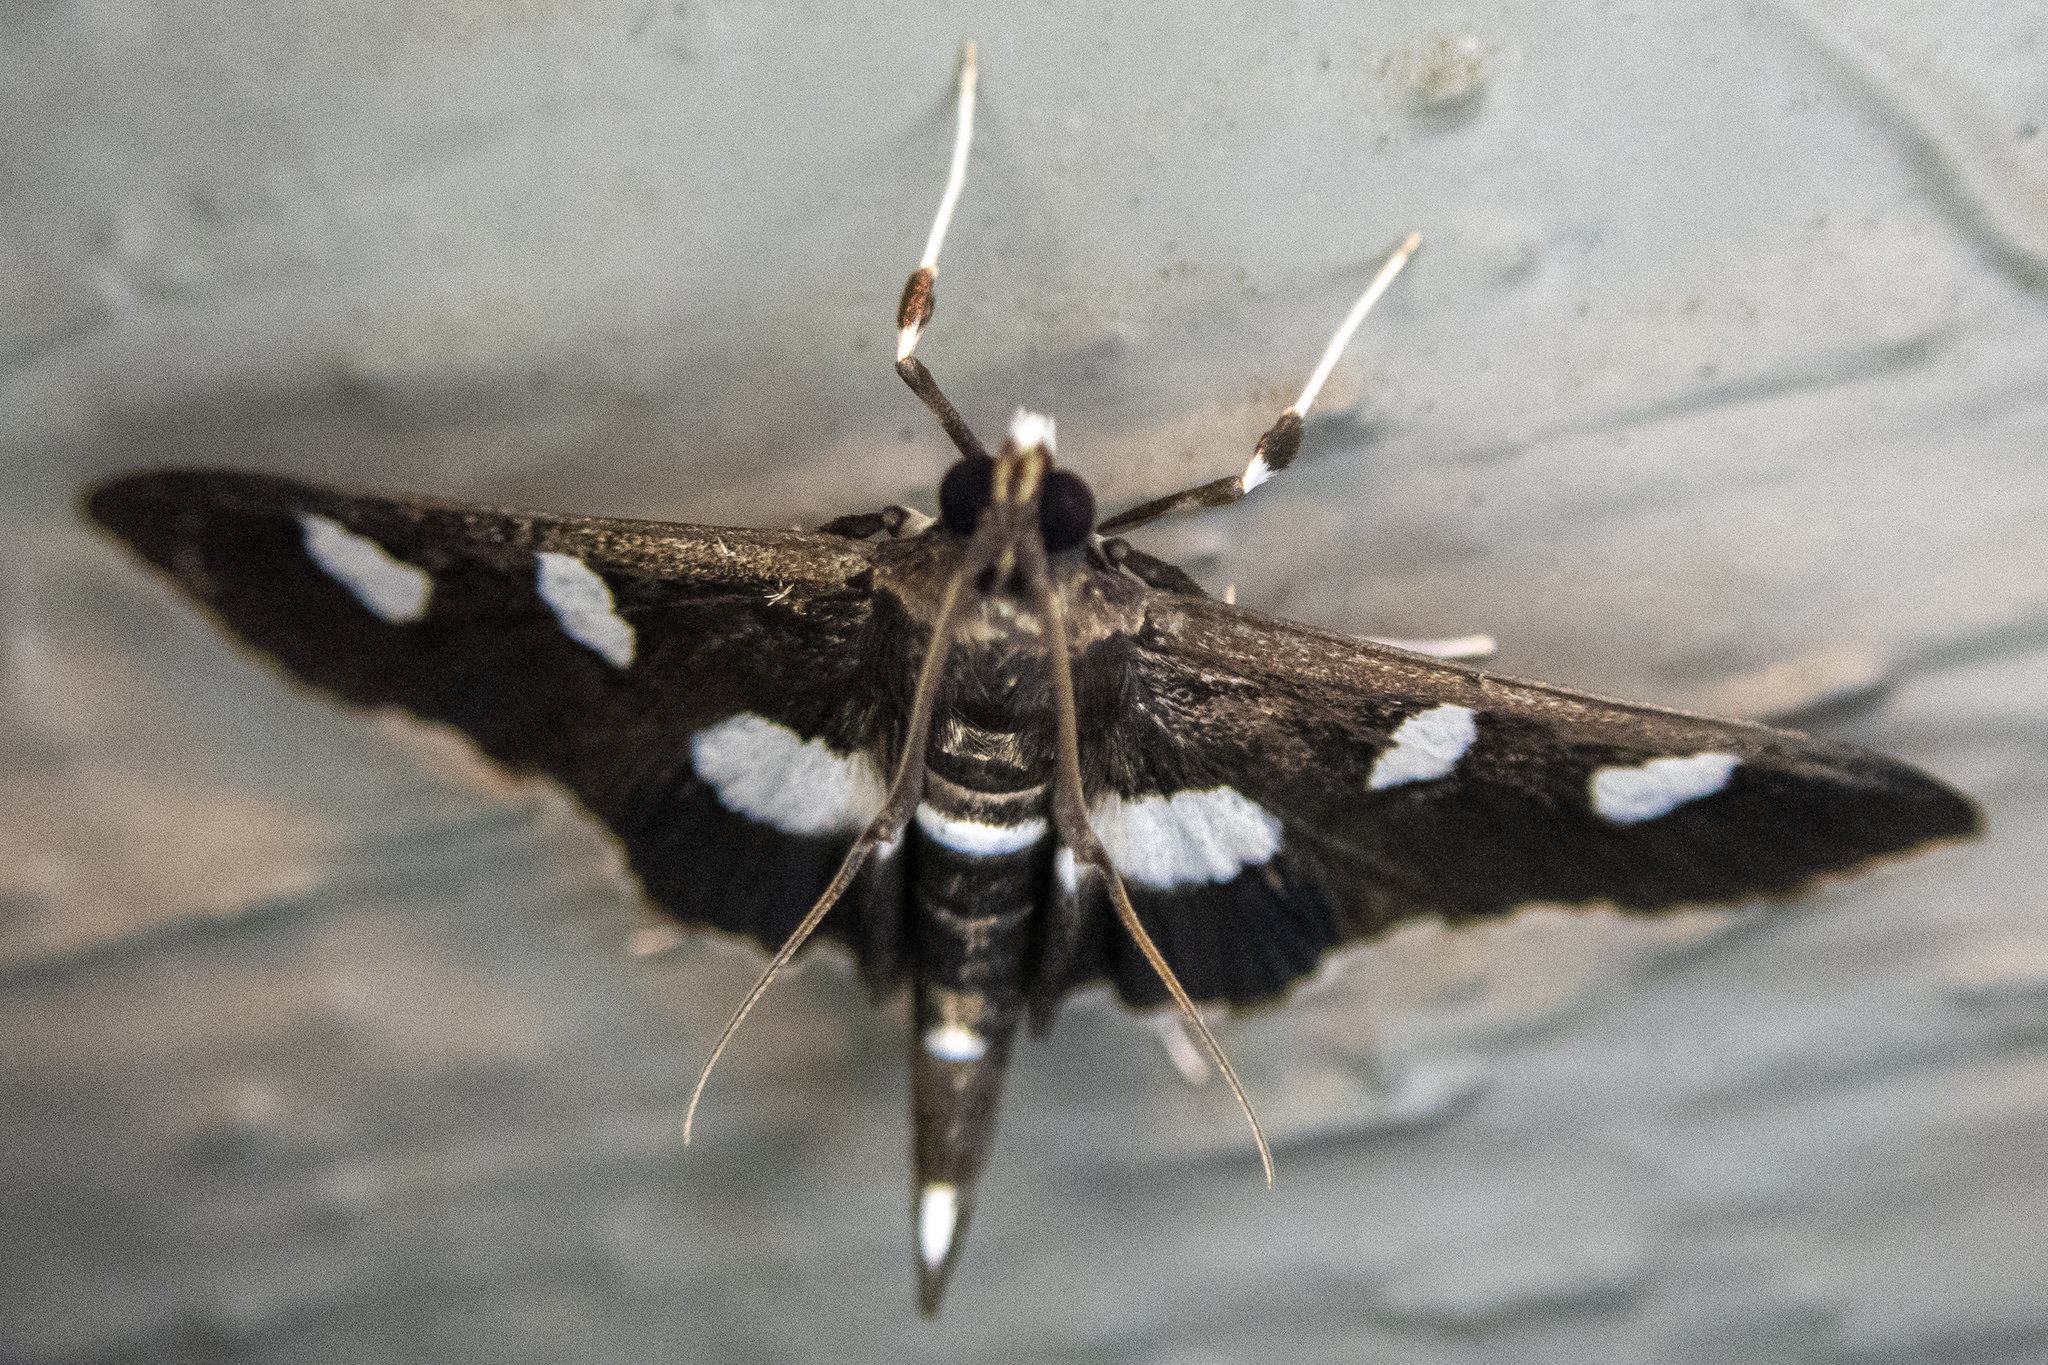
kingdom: Animalia
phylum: Arthropoda
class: Insecta
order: Lepidoptera
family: Crambidae
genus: Desmia
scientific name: Desmia
